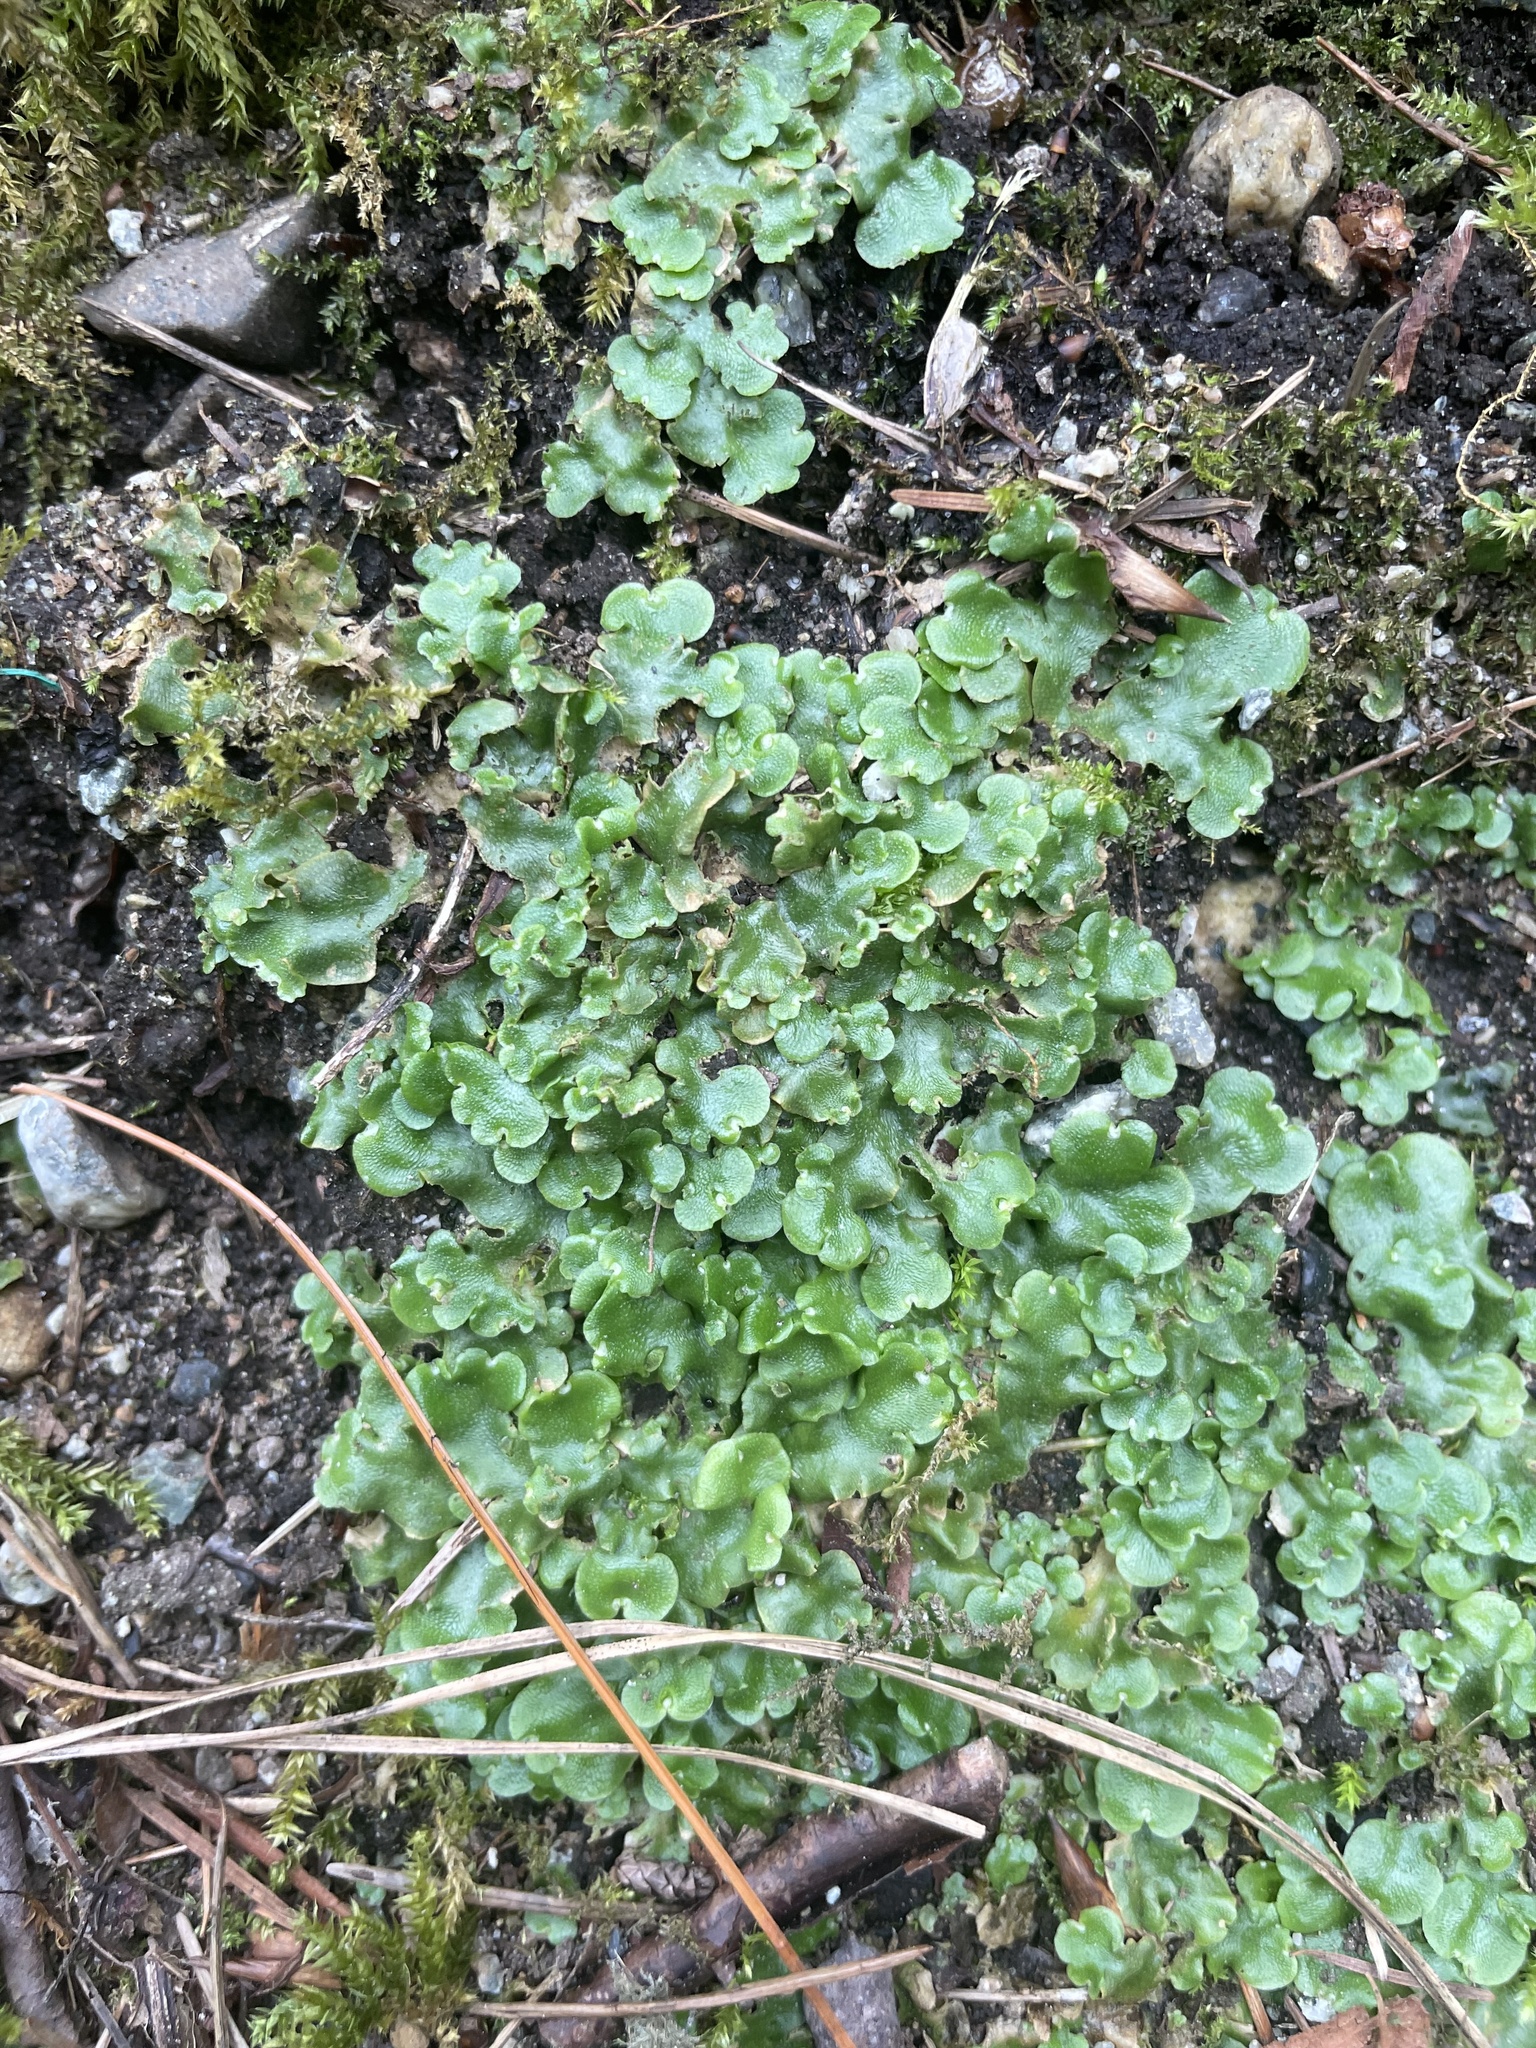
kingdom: Plantae
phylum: Marchantiophyta
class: Marchantiopsida
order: Lunulariales
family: Lunulariaceae
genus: Lunularia
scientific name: Lunularia cruciata
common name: Crescent-cup liverwort
